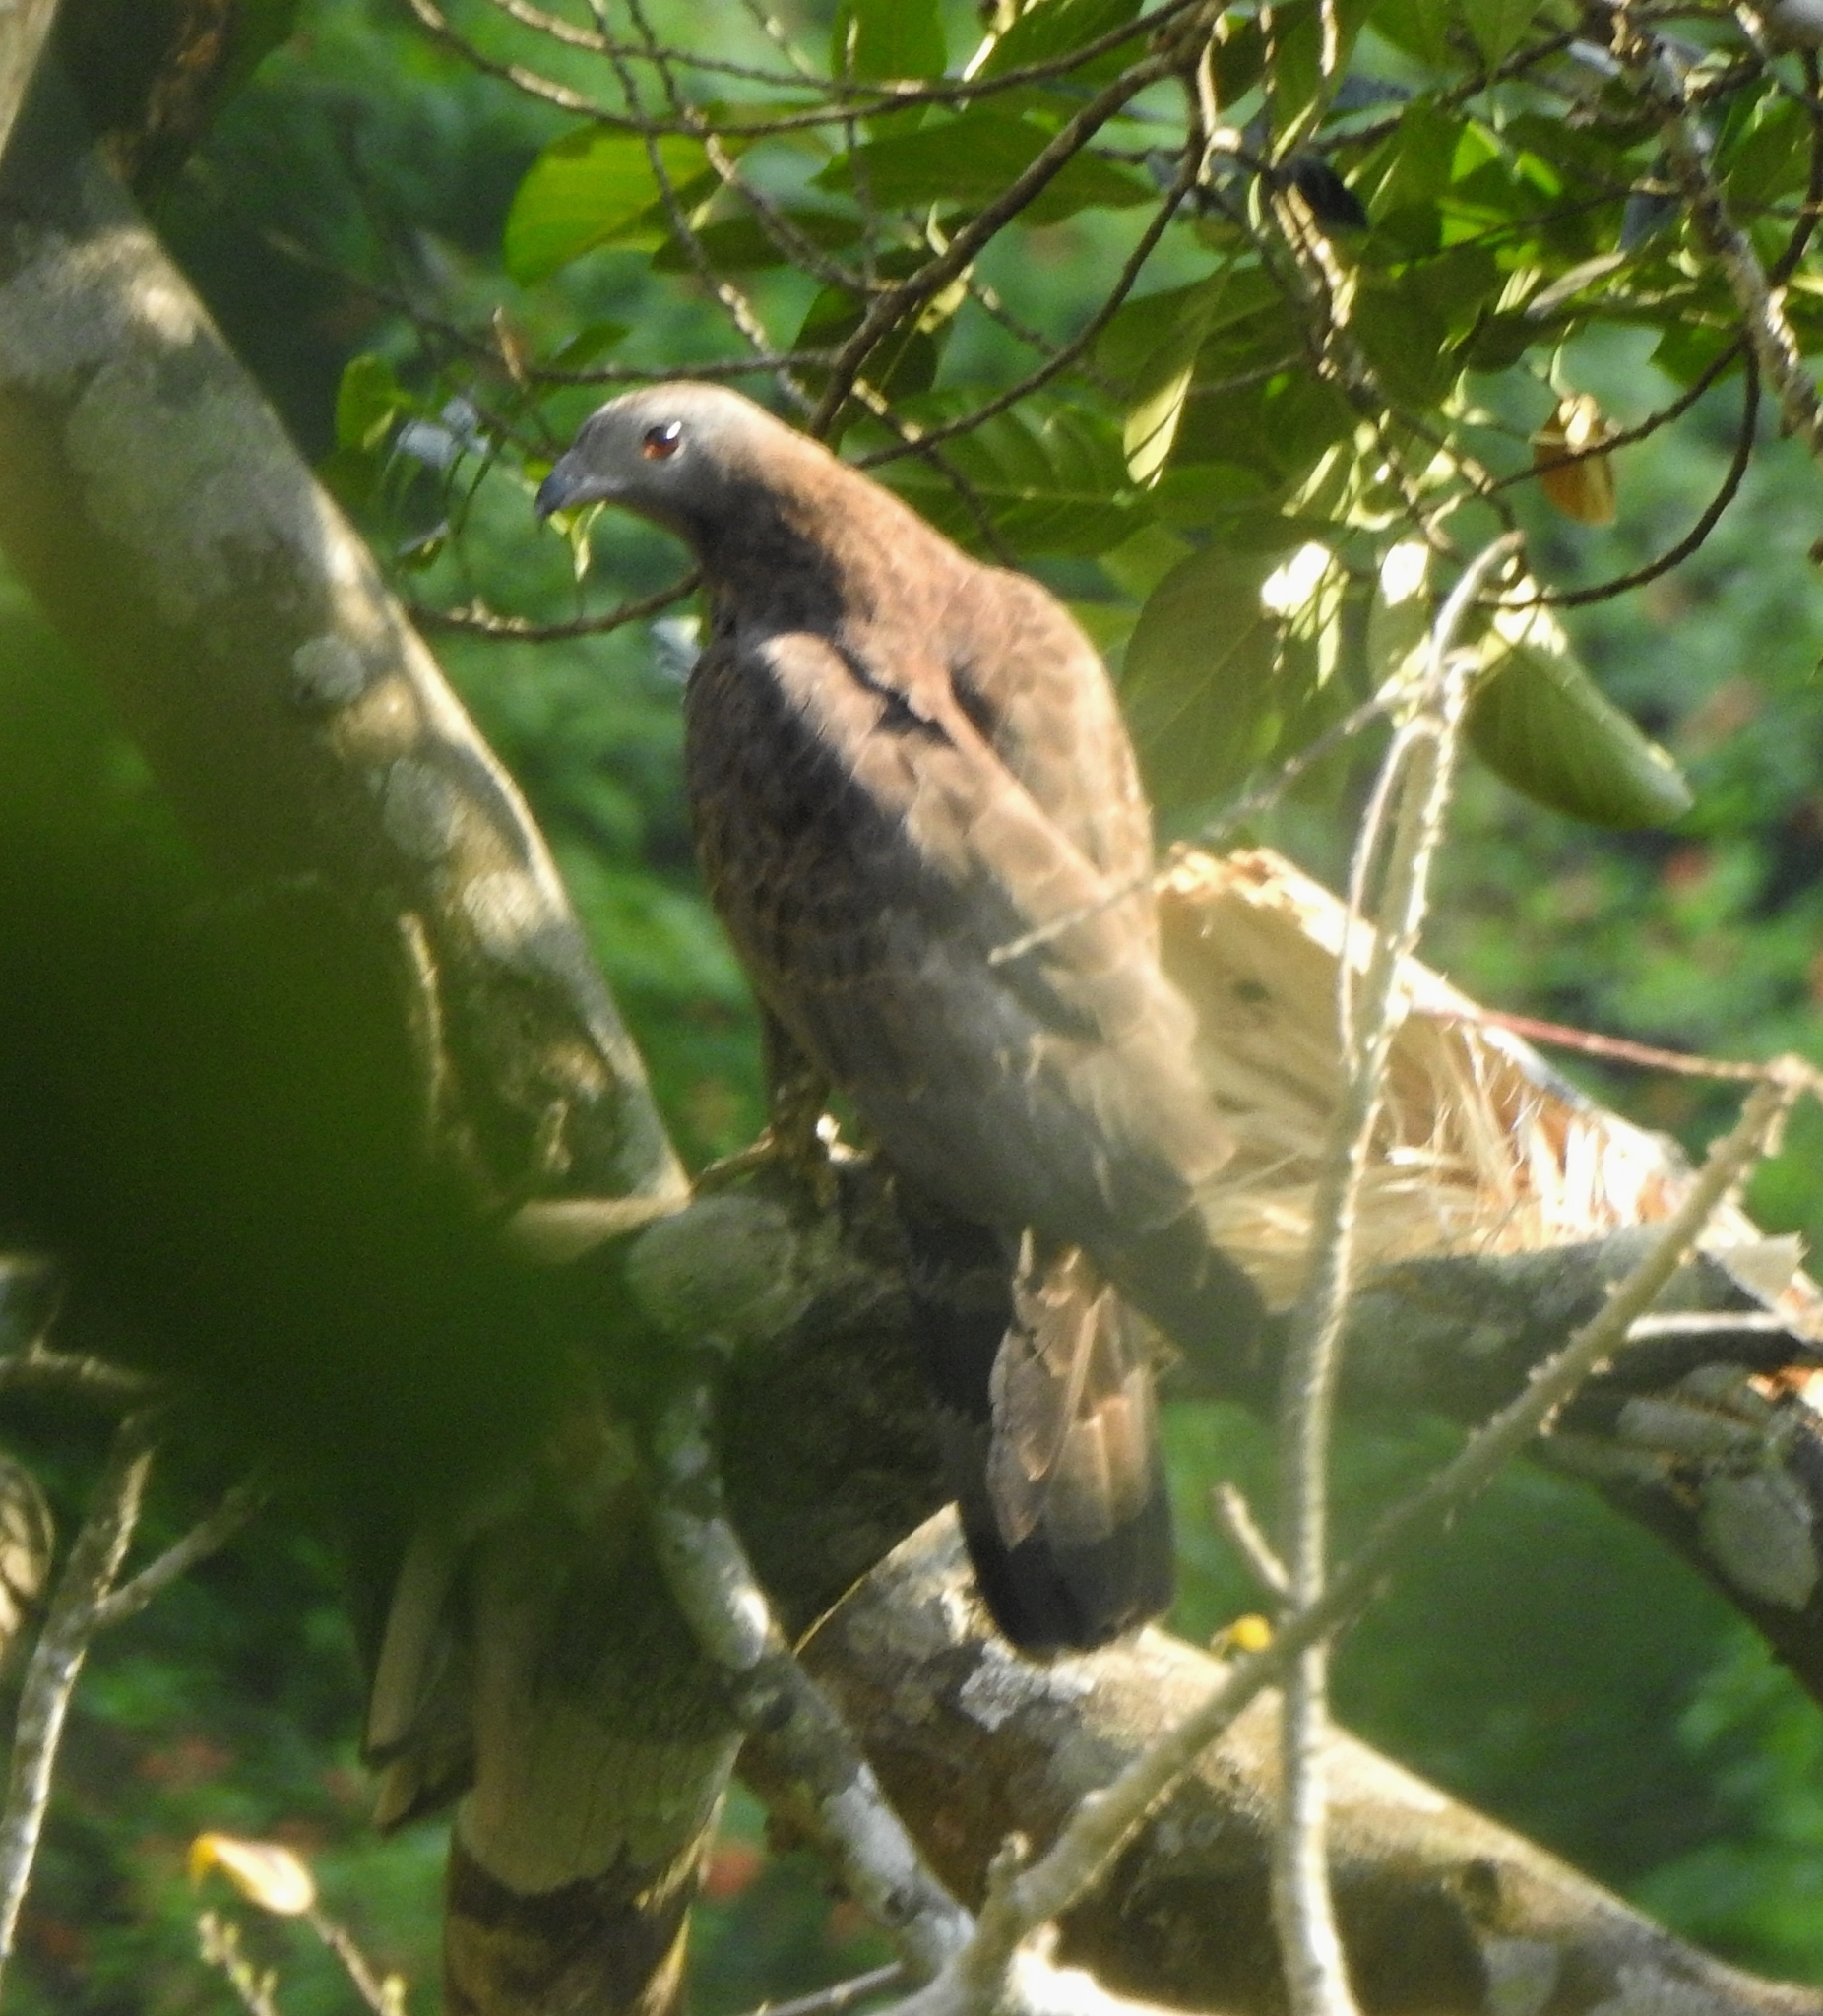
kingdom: Animalia
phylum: Chordata
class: Aves
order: Accipitriformes
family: Accipitridae
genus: Pernis
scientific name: Pernis ptilorhynchus
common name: Crested honey buzzard
